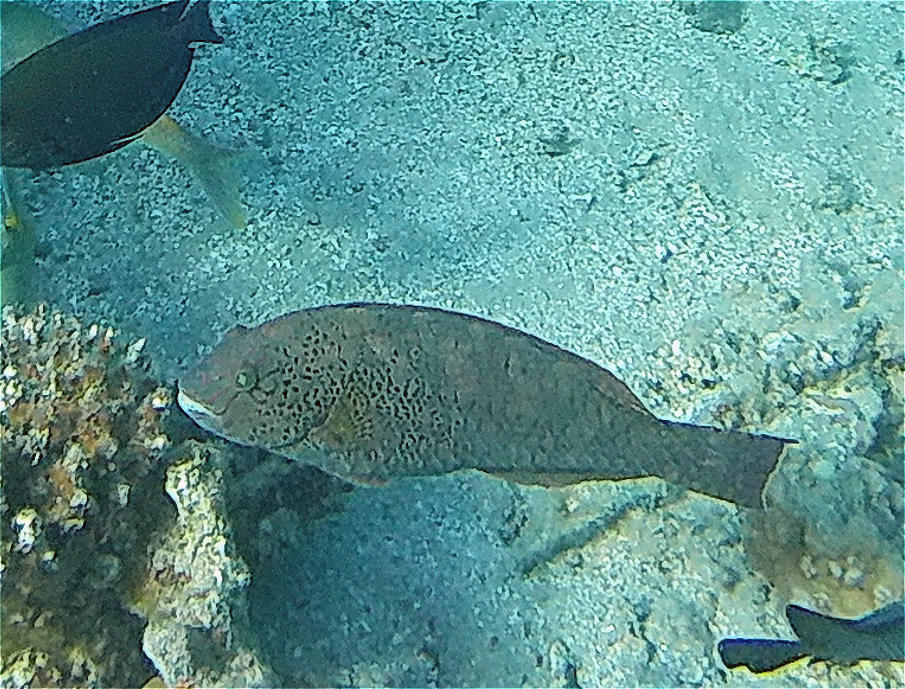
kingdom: Animalia
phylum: Chordata
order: Perciformes
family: Scaridae
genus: Calotomus
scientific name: Calotomus viridescens
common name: Dotted parrotfish
